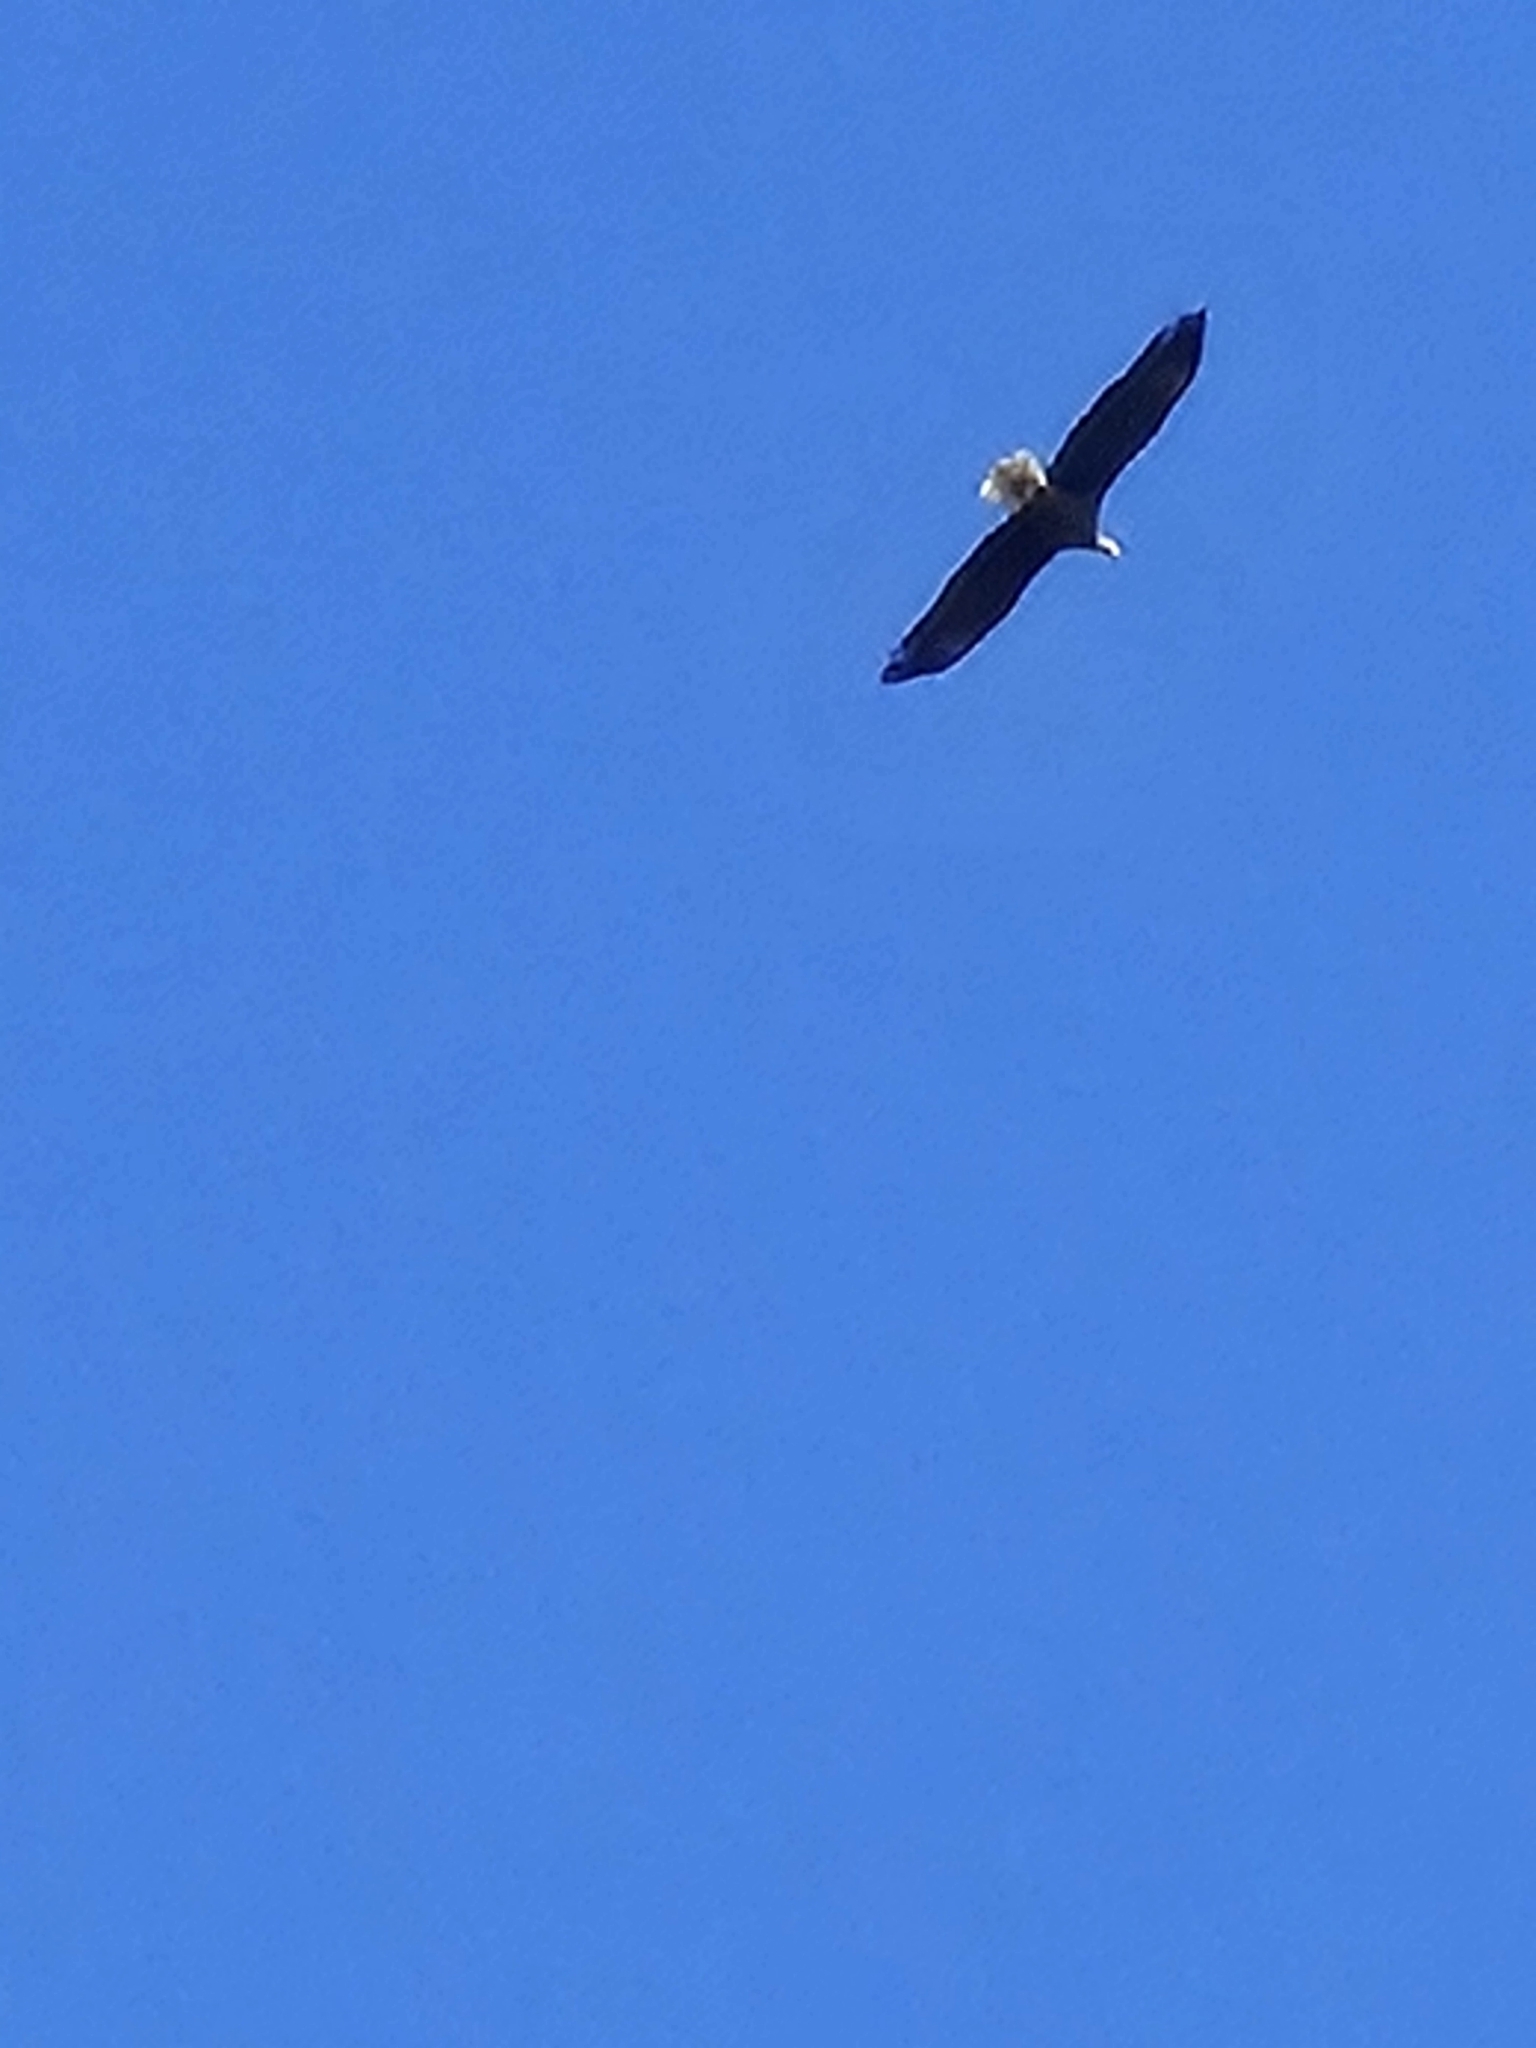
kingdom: Animalia
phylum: Chordata
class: Aves
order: Accipitriformes
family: Accipitridae
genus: Haliaeetus
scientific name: Haliaeetus leucocephalus
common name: Bald eagle
